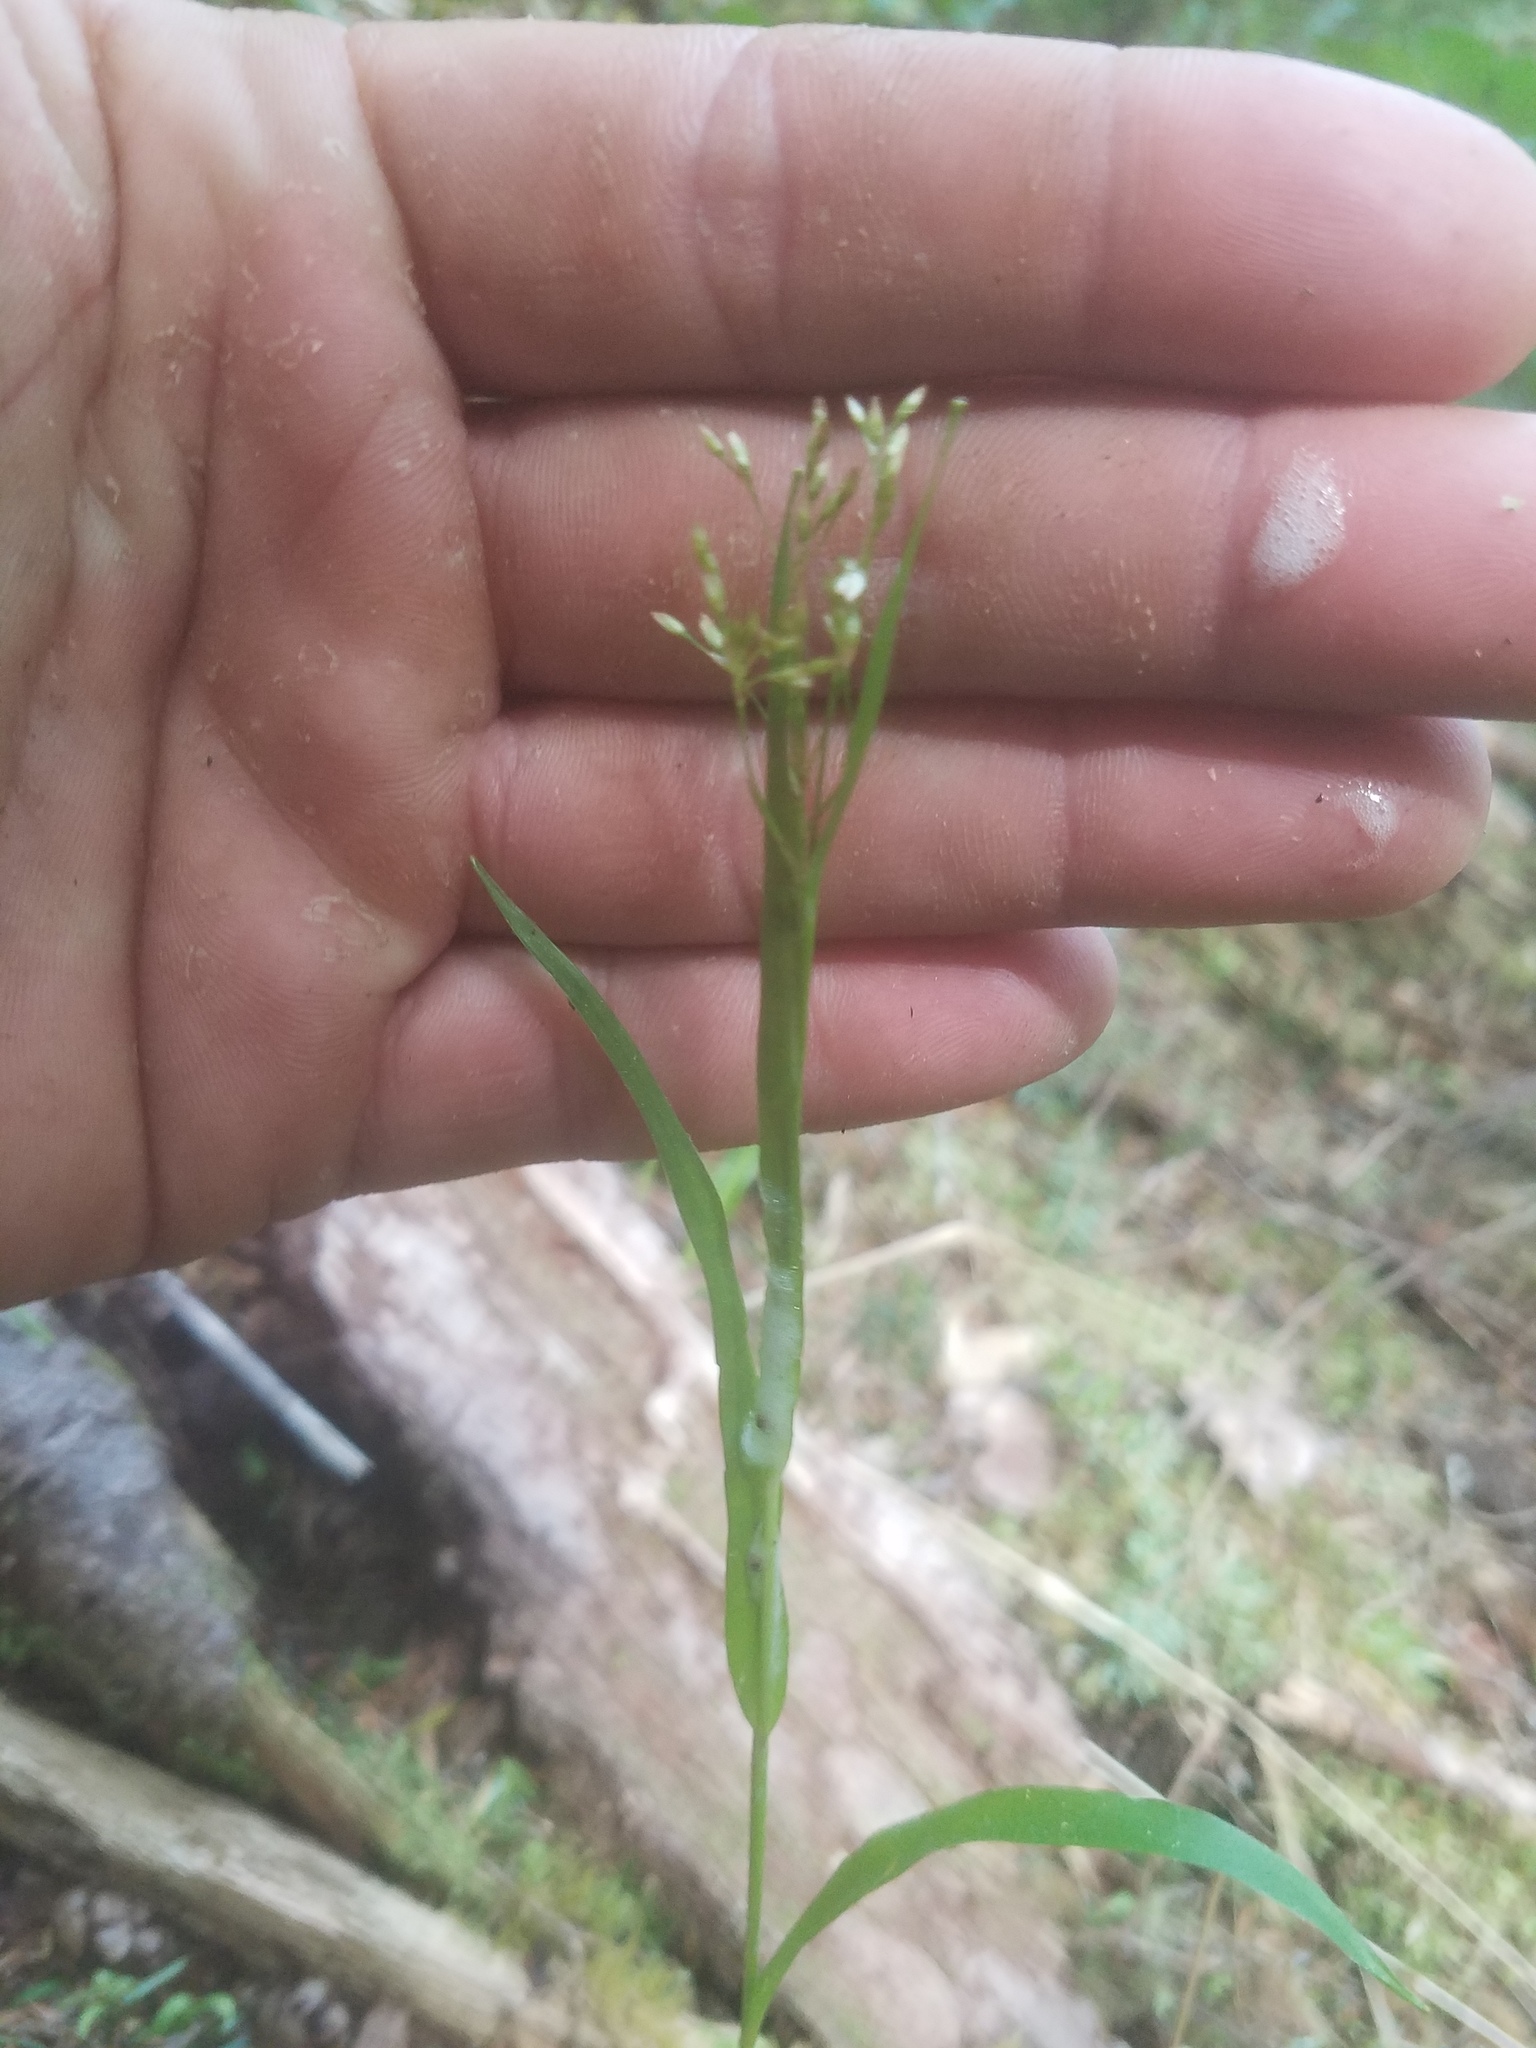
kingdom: Plantae
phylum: Tracheophyta
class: Liliopsida
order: Poales
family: Juncaceae
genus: Luzula
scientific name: Luzula parviflora
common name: Millet woodrush
